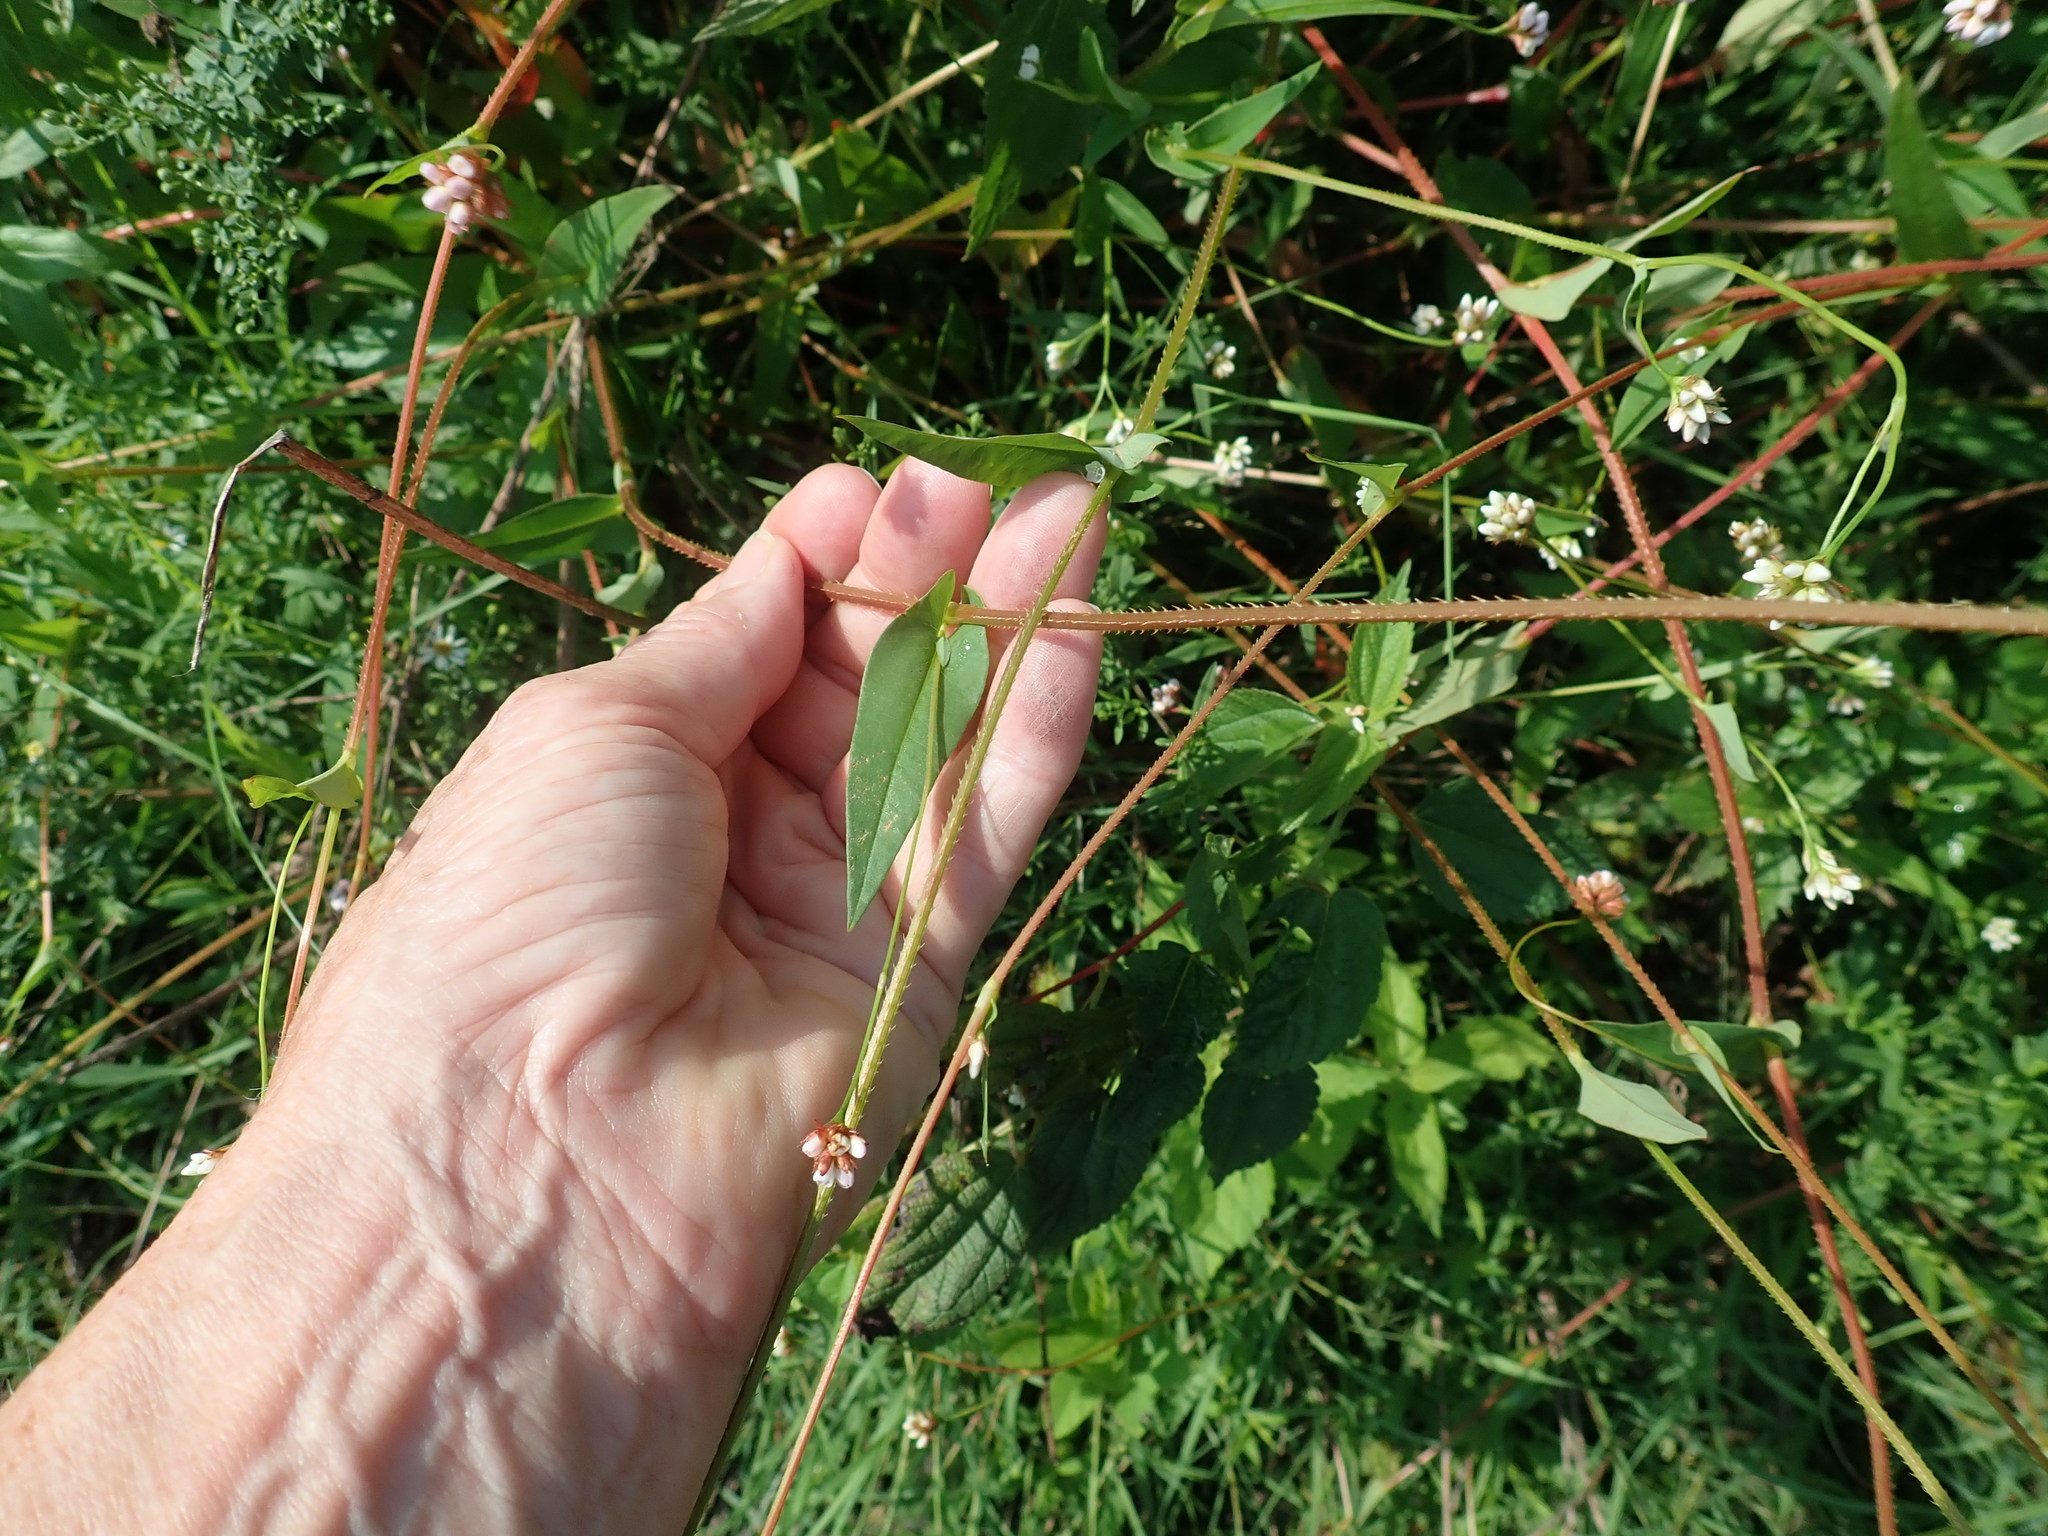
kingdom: Plantae
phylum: Tracheophyta
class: Magnoliopsida
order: Caryophyllales
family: Polygonaceae
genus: Persicaria
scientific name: Persicaria sagittata
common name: American tearthumb
